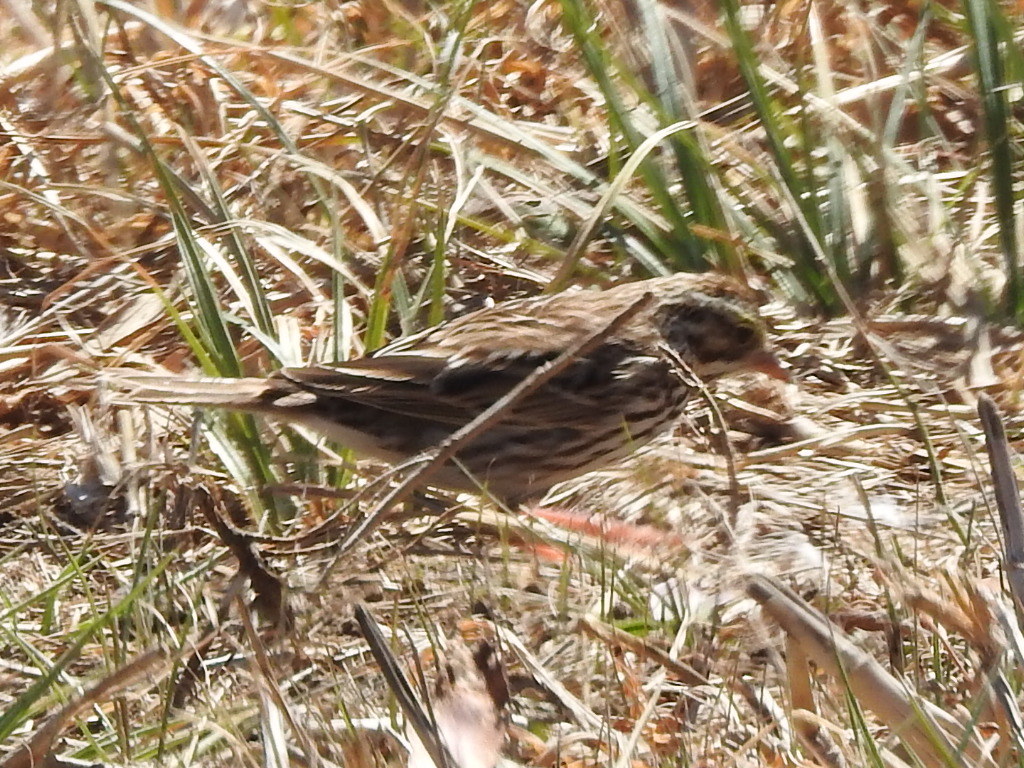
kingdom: Animalia
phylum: Chordata
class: Aves
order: Passeriformes
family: Passerellidae
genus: Passerculus
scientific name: Passerculus sandwichensis
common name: Savannah sparrow
